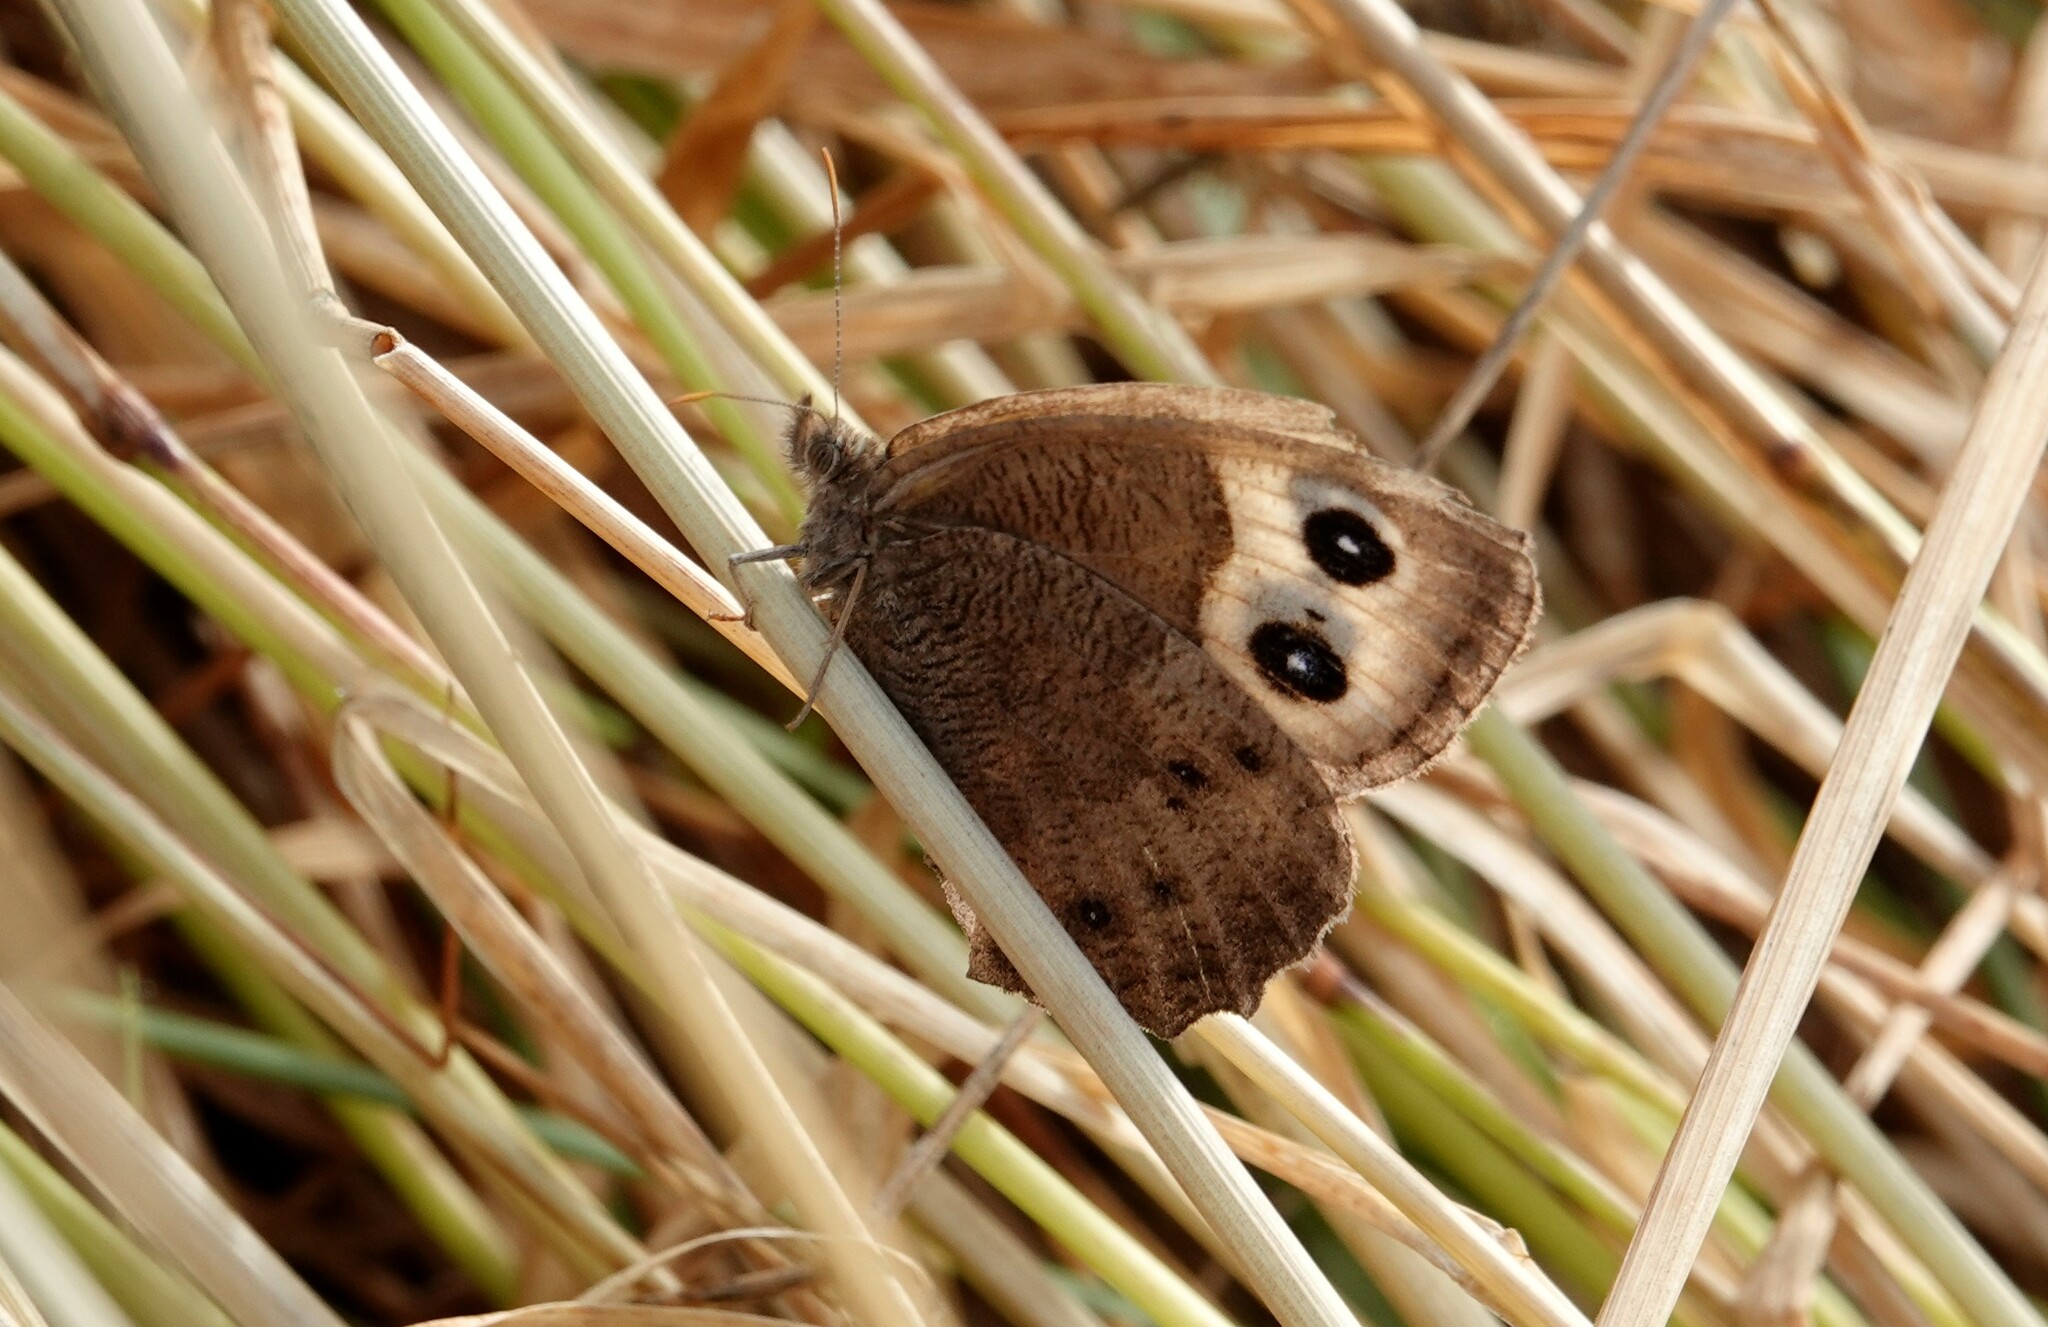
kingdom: Animalia
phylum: Arthropoda
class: Insecta
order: Lepidoptera
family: Nymphalidae
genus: Cercyonis
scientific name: Cercyonis pegala
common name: Common wood-nymph
